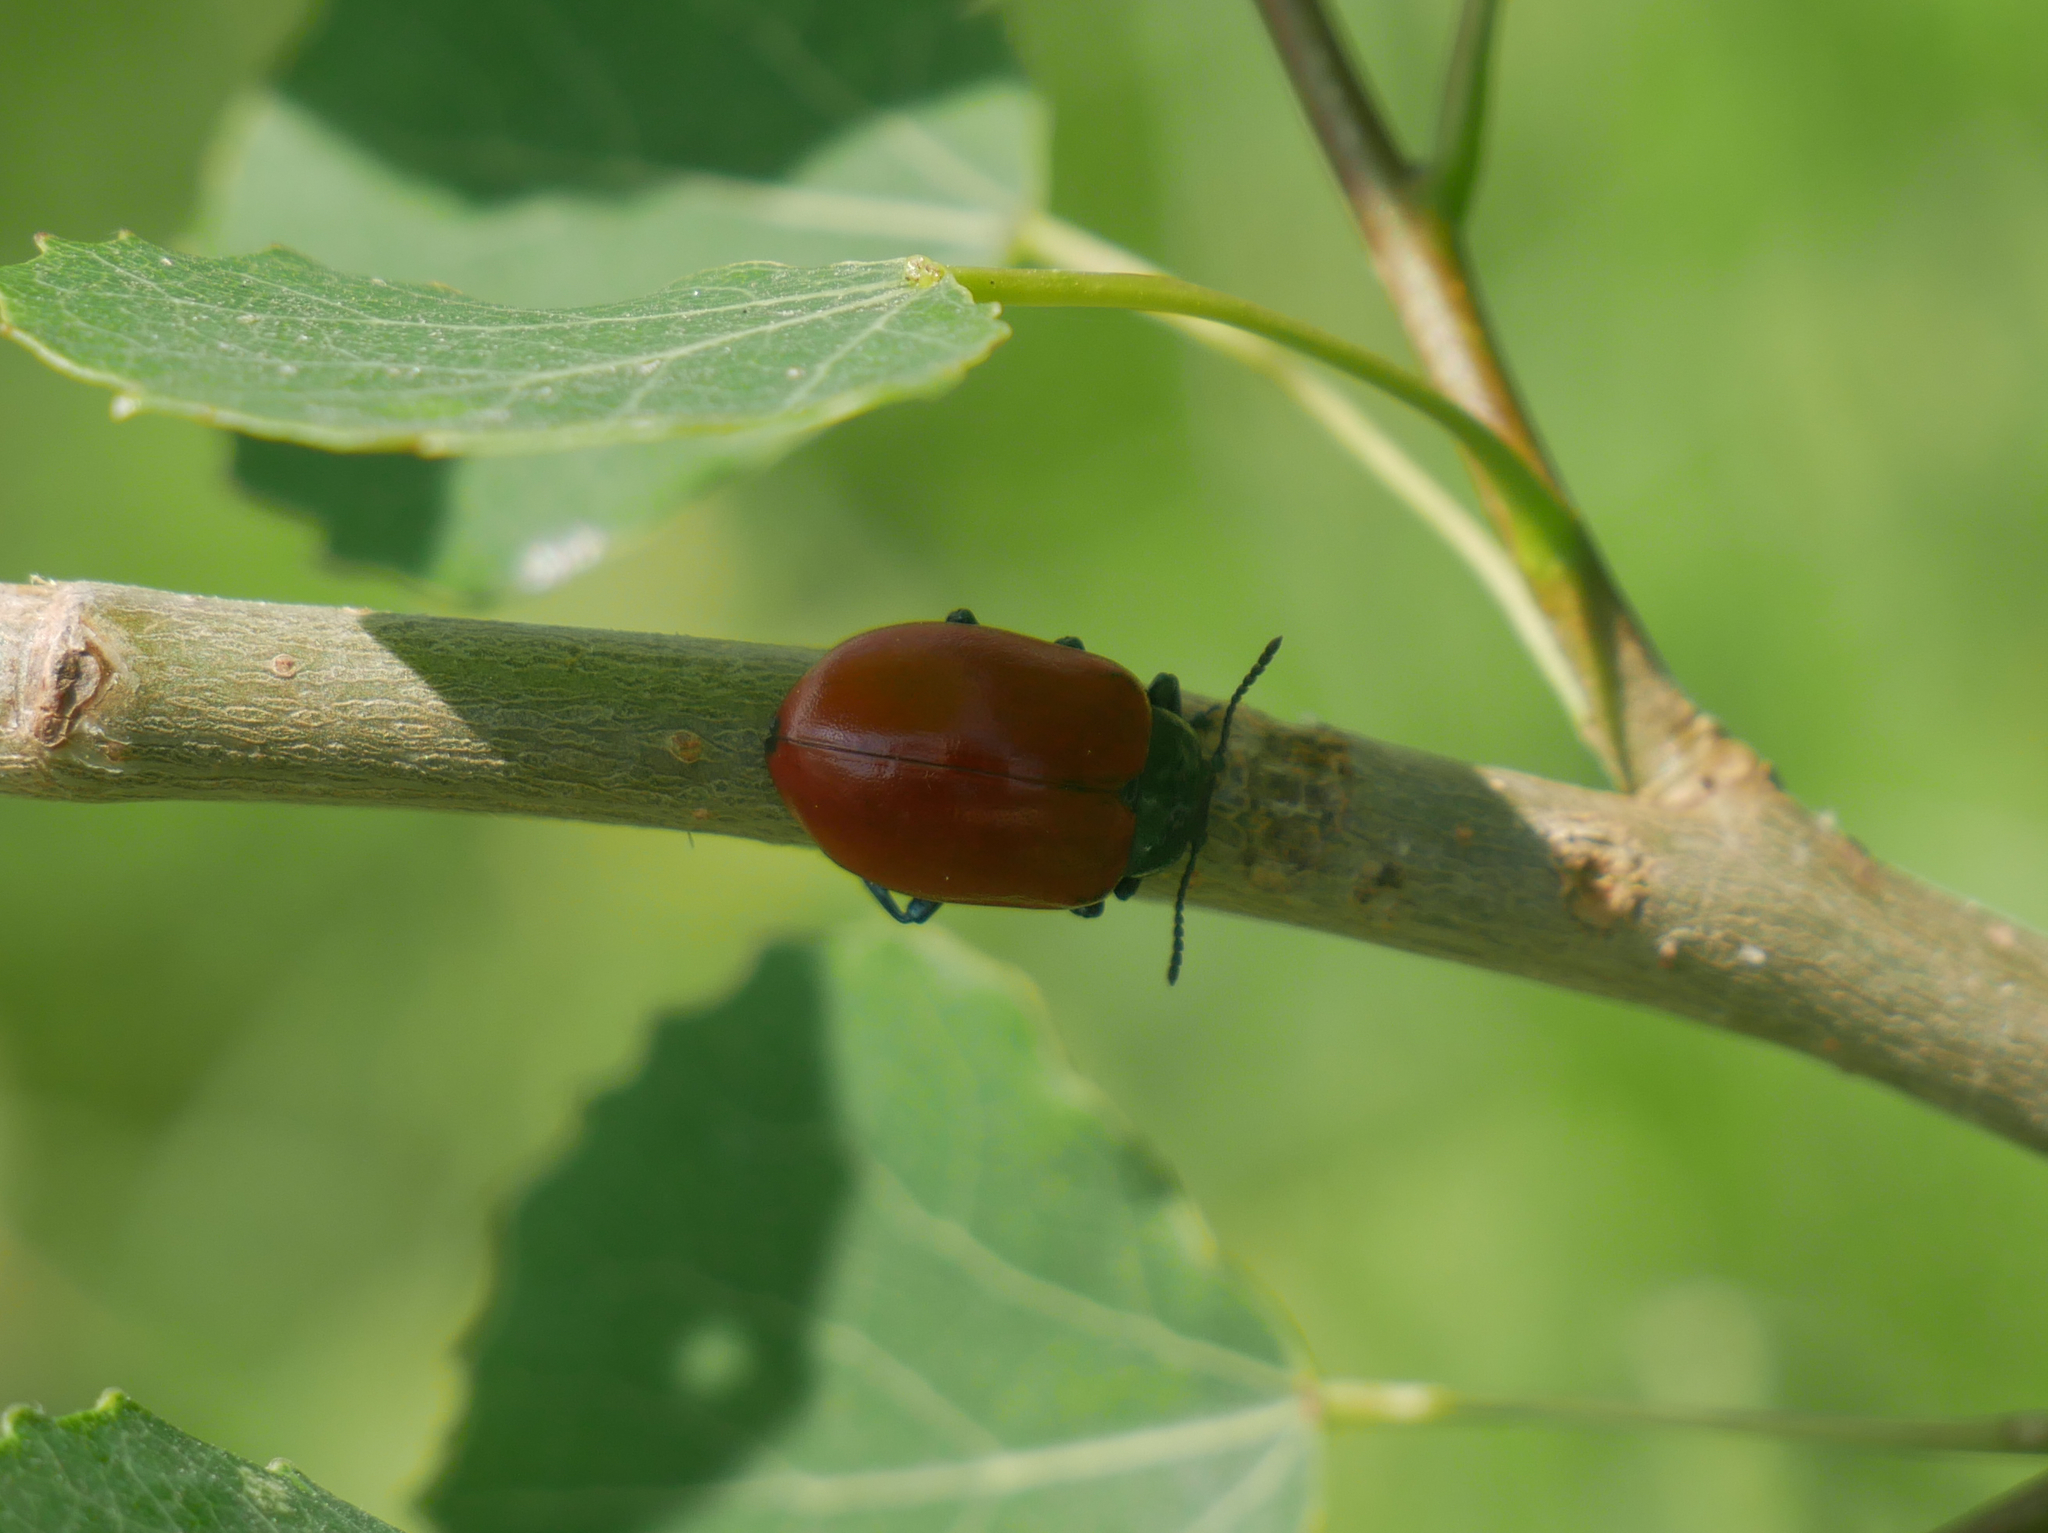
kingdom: Animalia
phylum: Arthropoda
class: Insecta
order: Coleoptera
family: Chrysomelidae
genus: Chrysomela
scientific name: Chrysomela populi
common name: Red poplar leaf beetle
